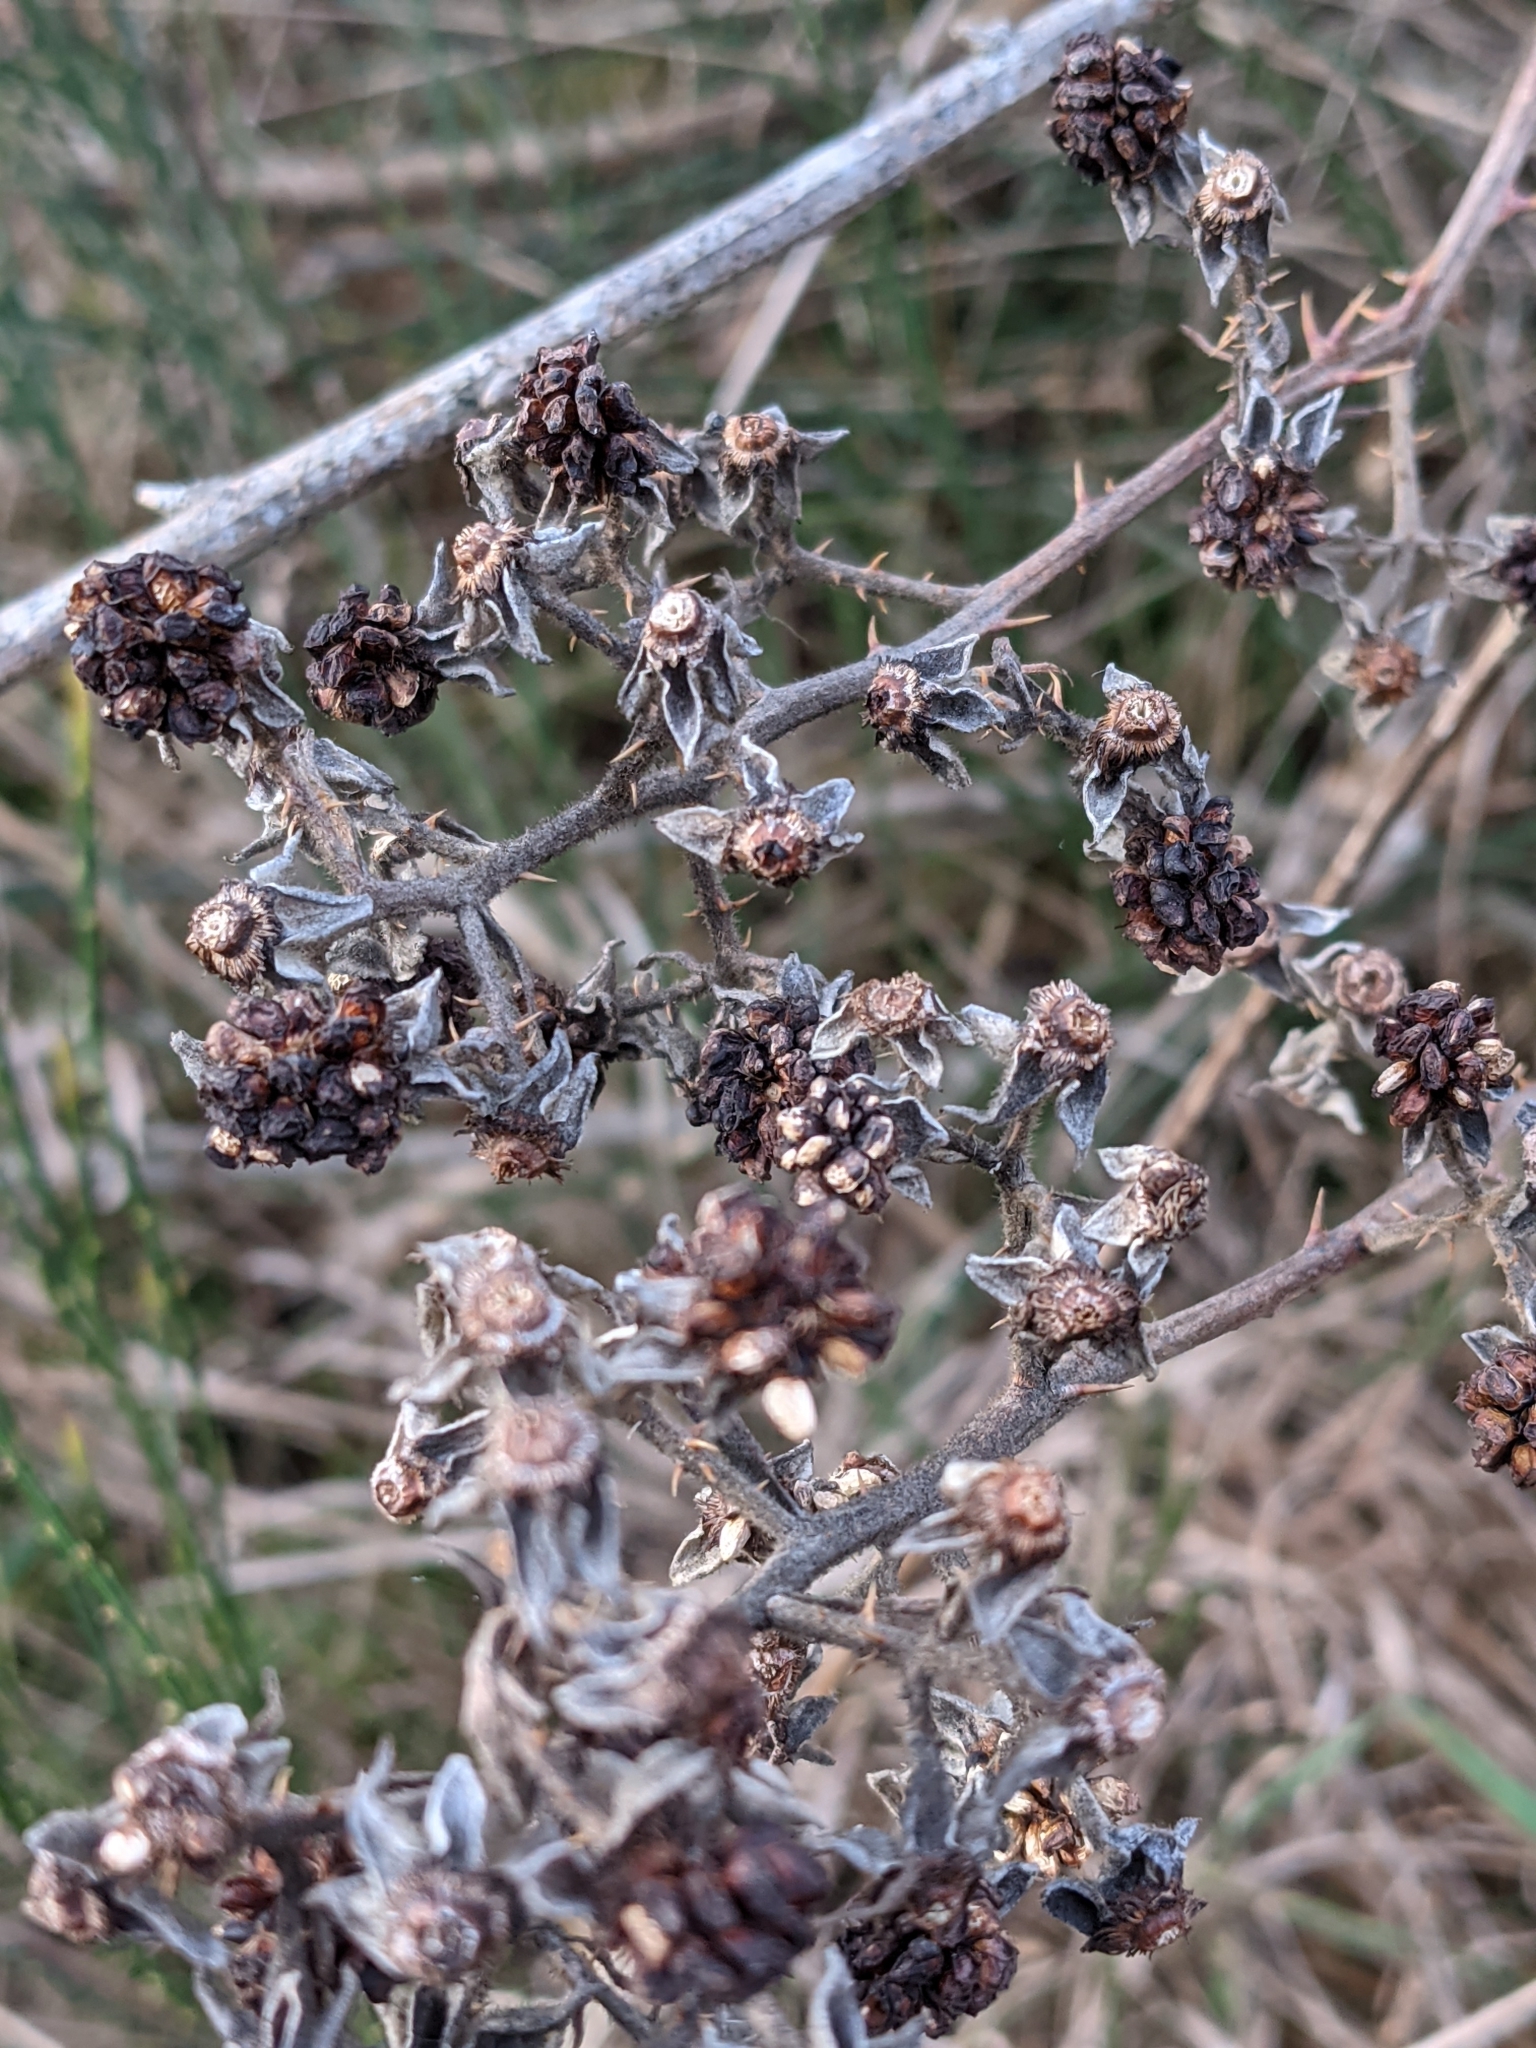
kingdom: Plantae
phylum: Tracheophyta
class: Magnoliopsida
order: Rosales
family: Rosaceae
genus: Rubus
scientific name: Rubus bifrons
